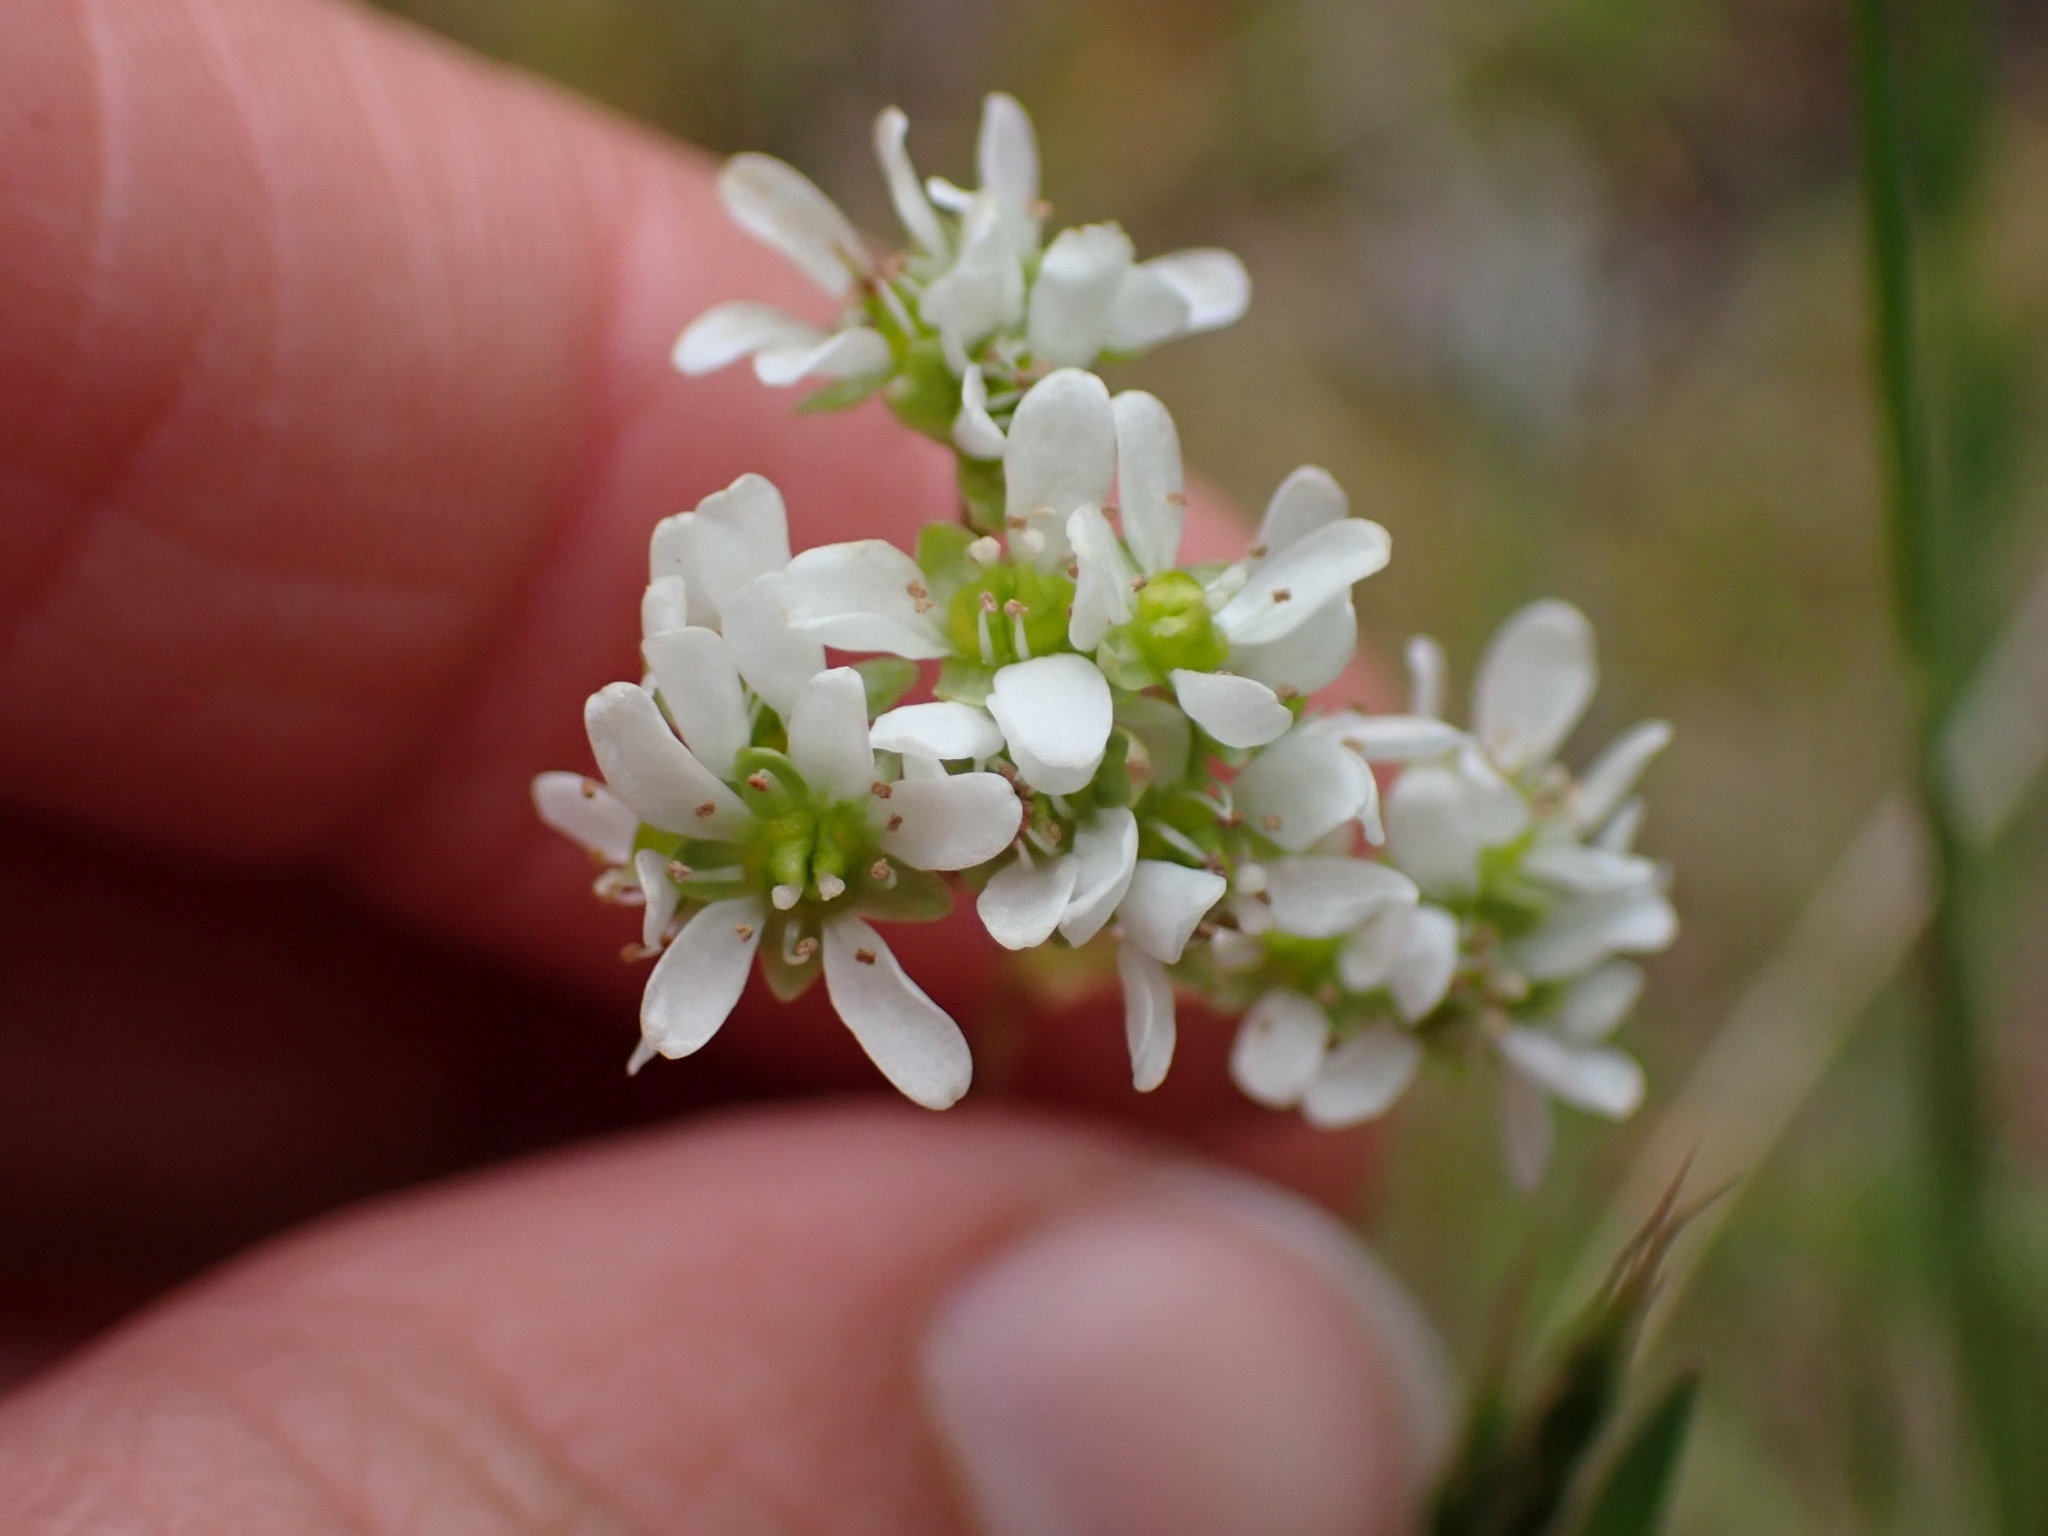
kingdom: Plantae
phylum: Tracheophyta
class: Magnoliopsida
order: Saxifragales
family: Saxifragaceae
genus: Micranthes
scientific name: Micranthes integrifolia
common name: Wholeleaf saxifrage
